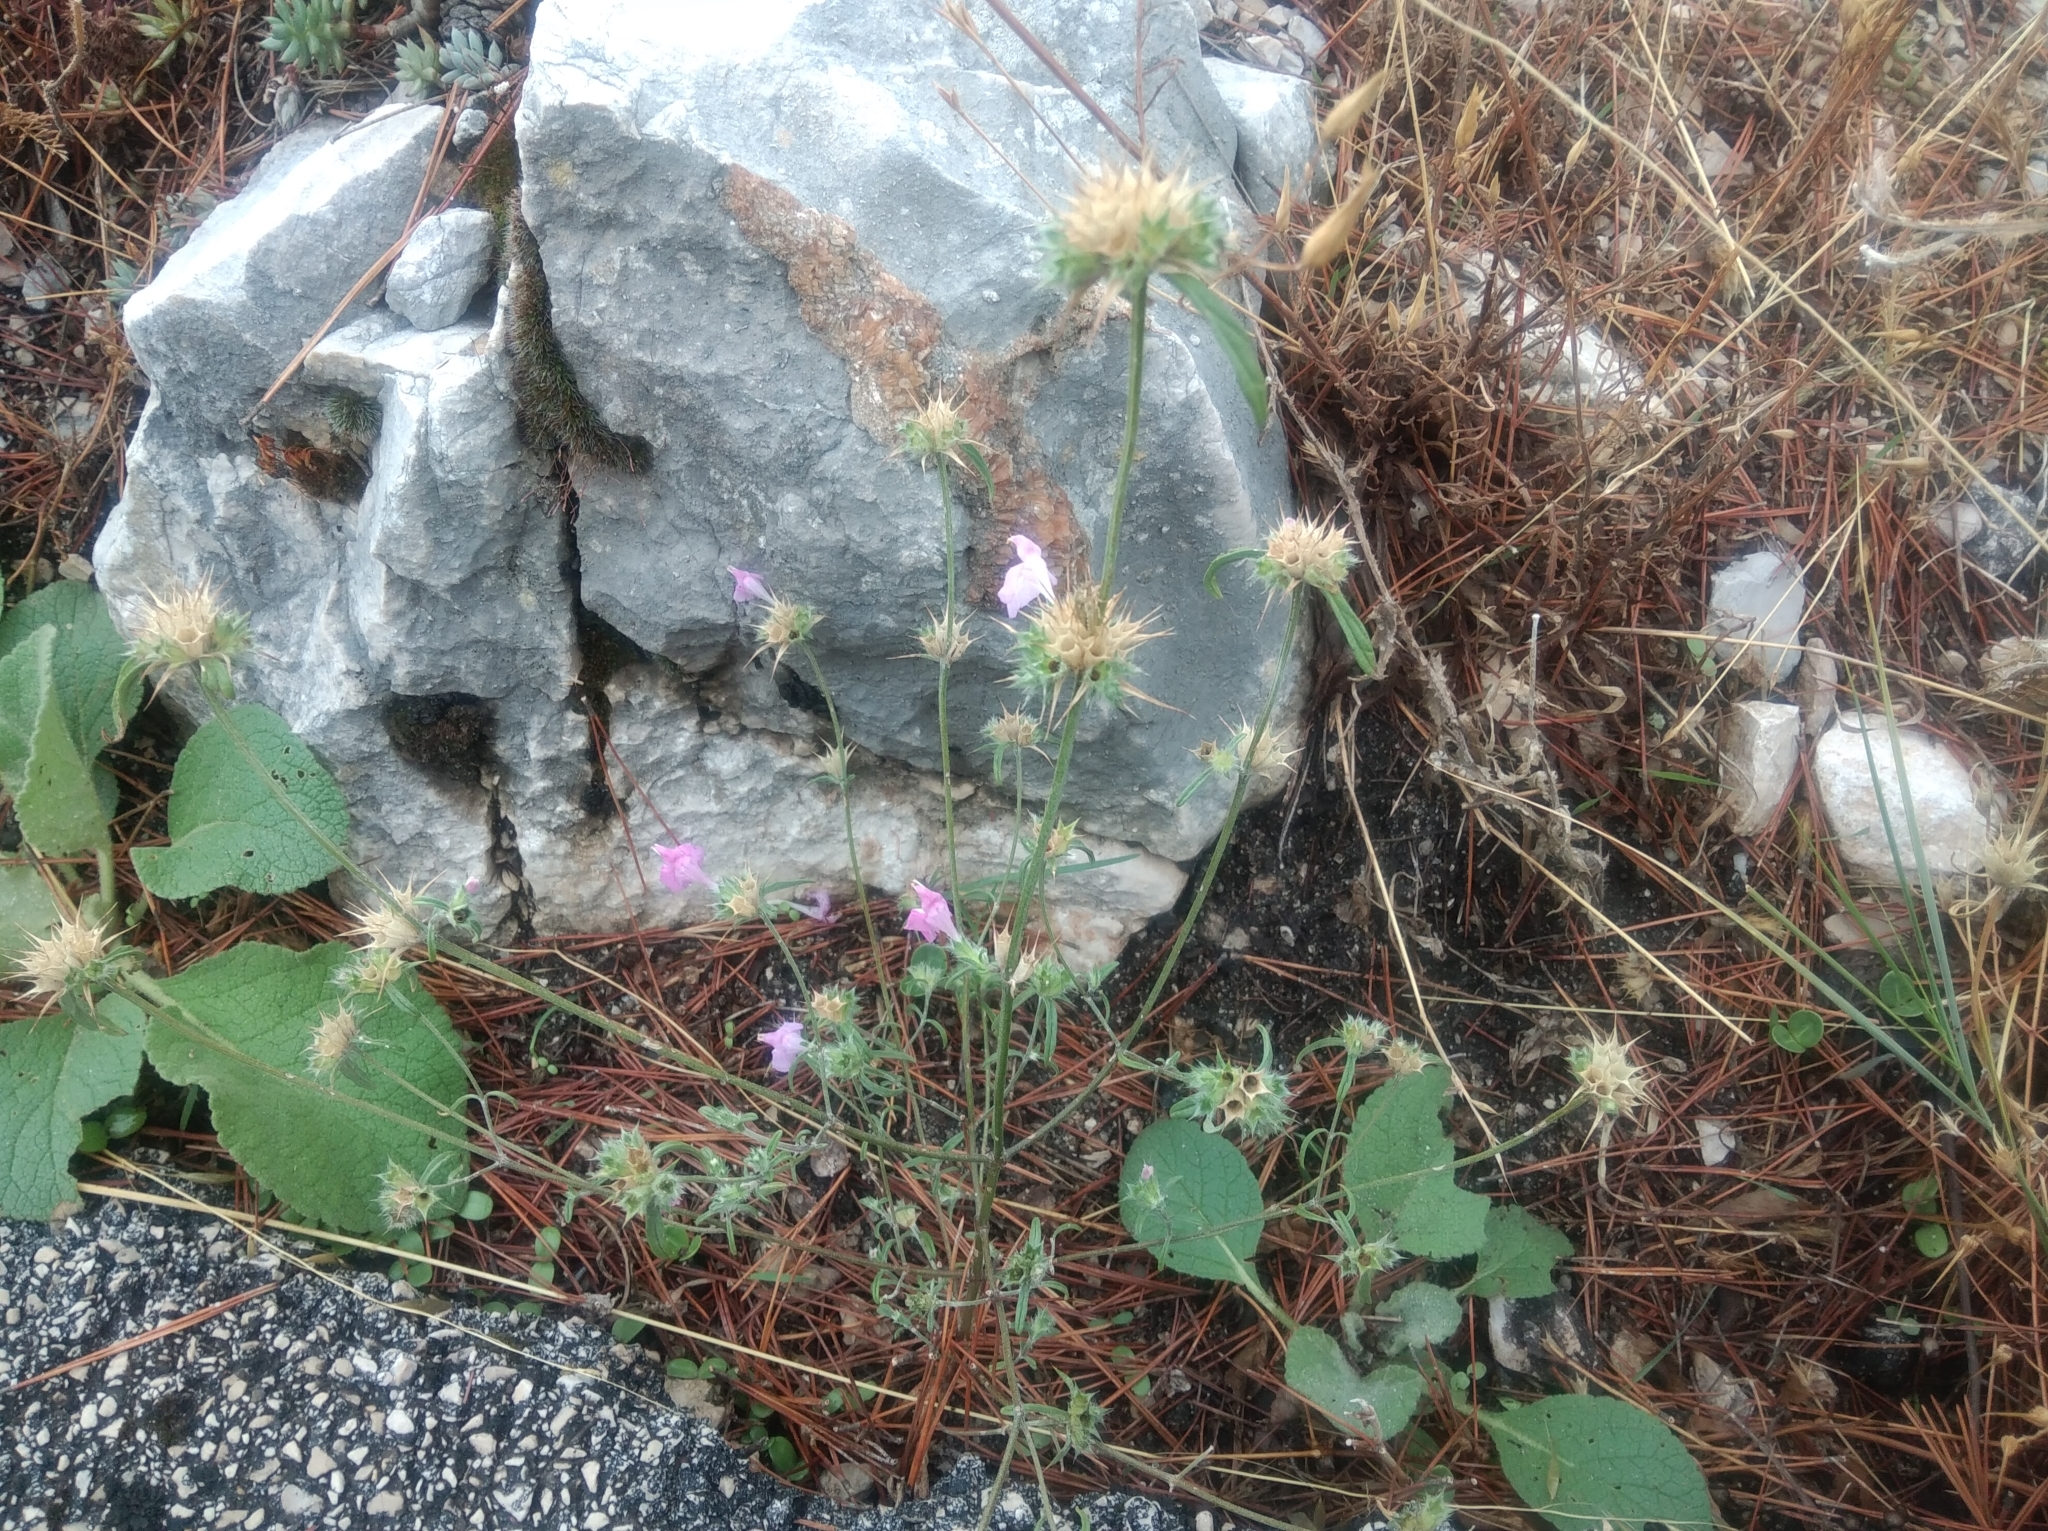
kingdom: Plantae
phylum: Tracheophyta
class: Magnoliopsida
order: Lamiales
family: Lamiaceae
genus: Galeopsis
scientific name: Galeopsis angustifolia
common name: Red hemp-nettle
